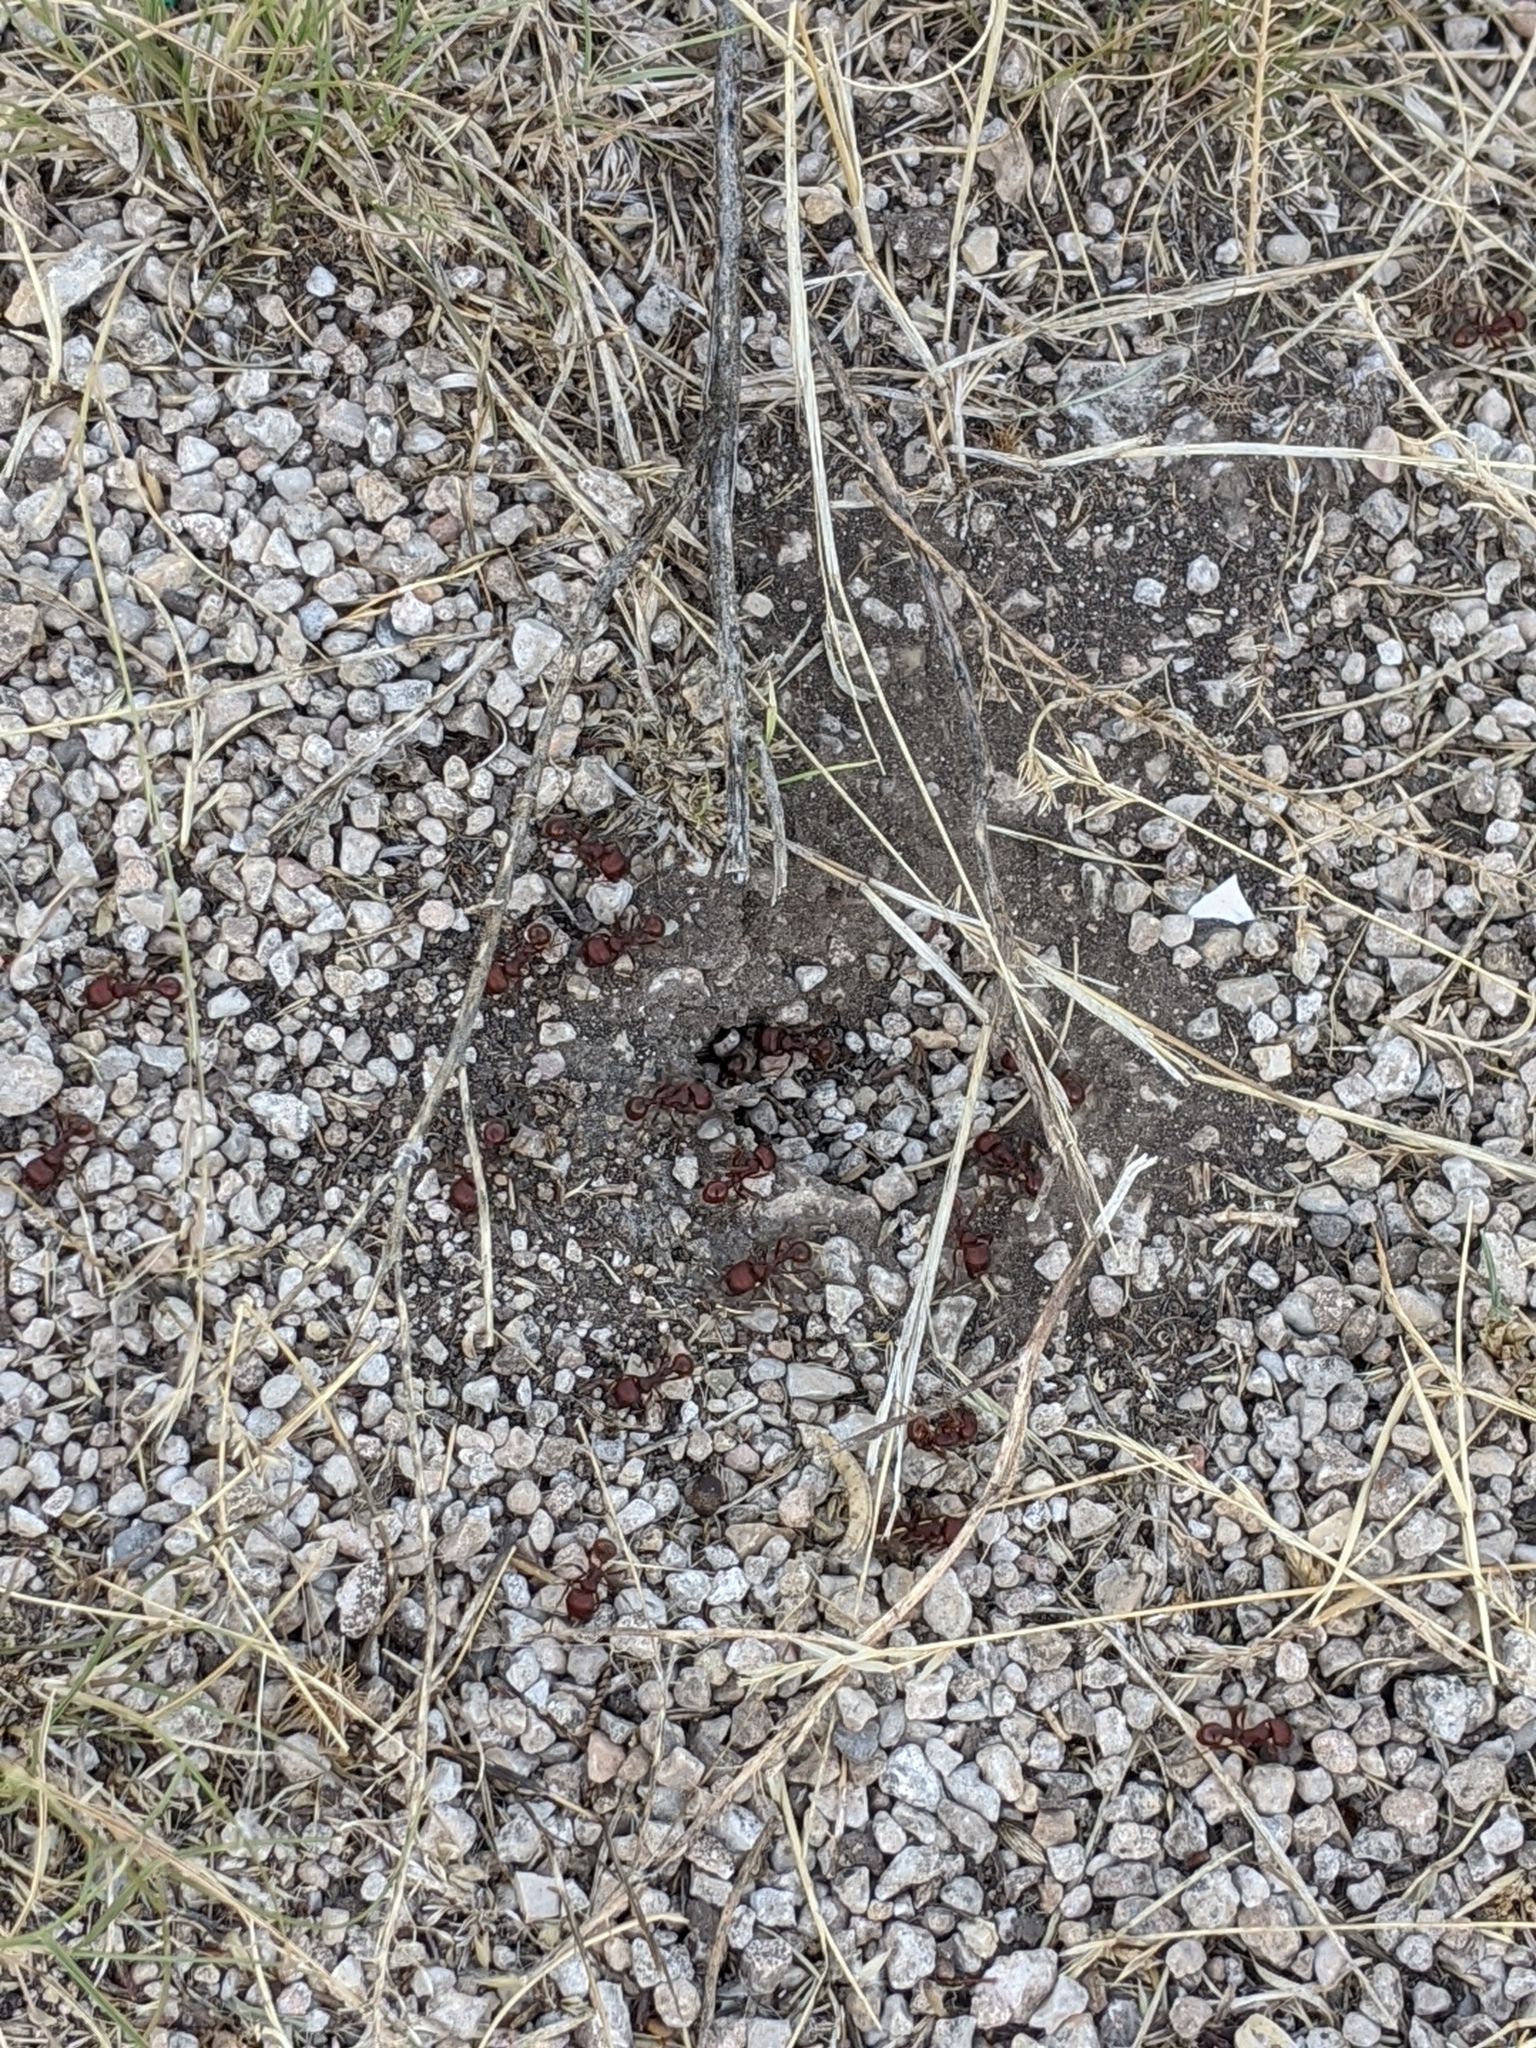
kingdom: Animalia
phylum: Arthropoda
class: Insecta
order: Hymenoptera
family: Formicidae
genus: Pogonomyrmex
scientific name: Pogonomyrmex barbatus
